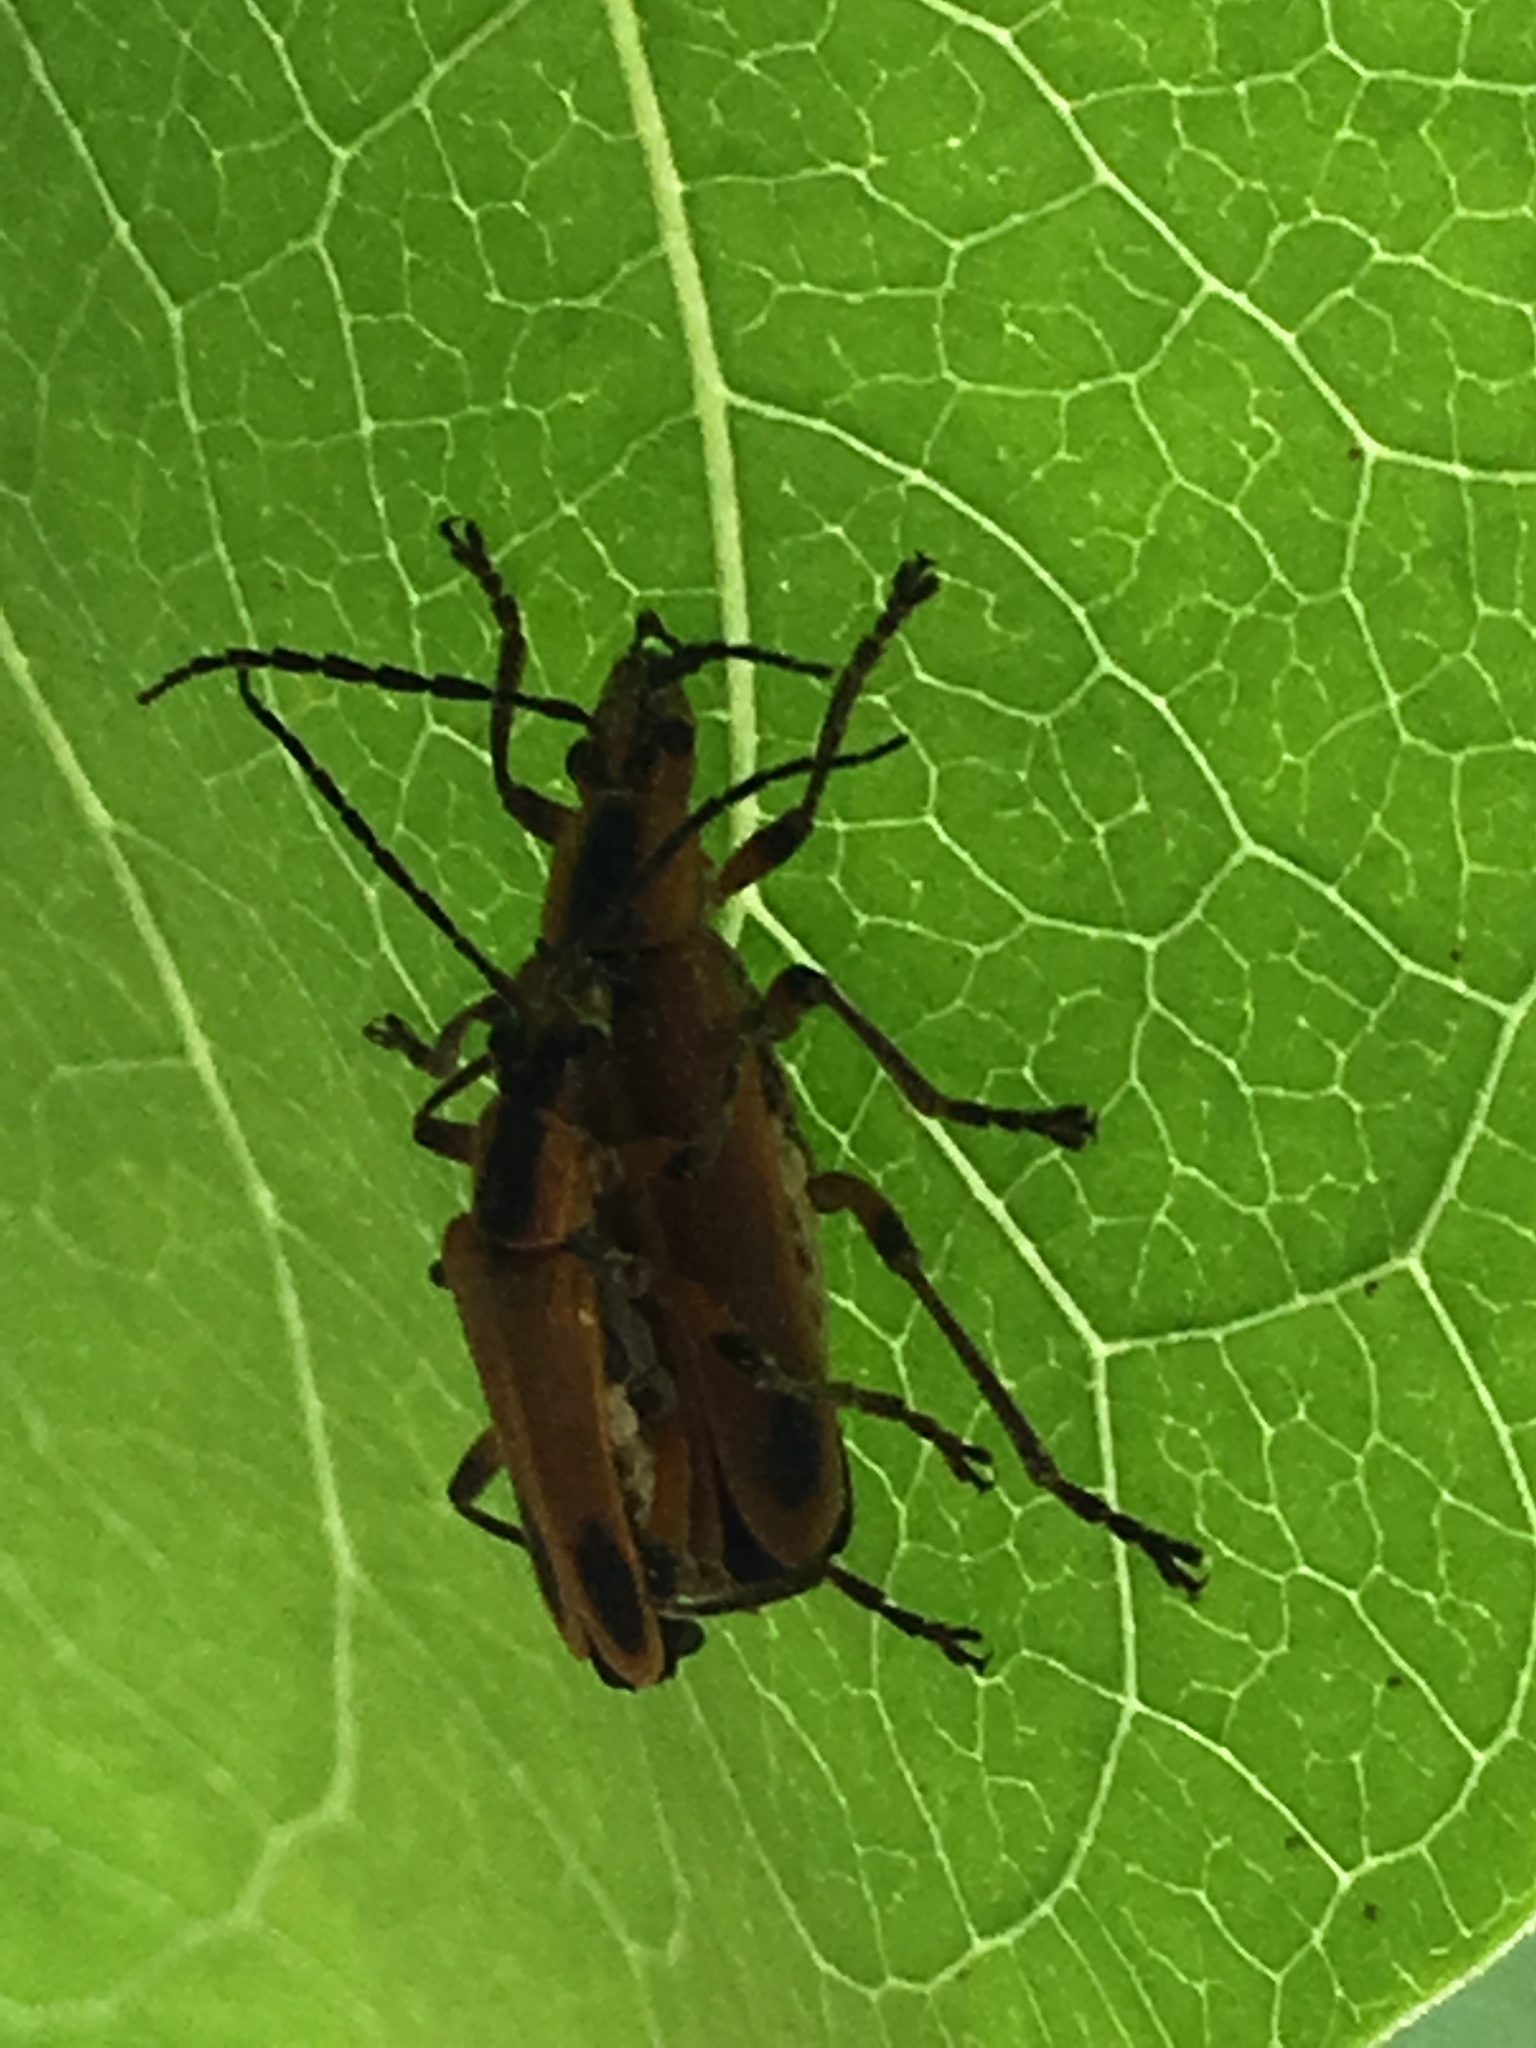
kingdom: Animalia
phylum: Arthropoda
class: Insecta
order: Coleoptera
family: Cantharidae
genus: Chauliognathus
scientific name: Chauliognathus marginatus
